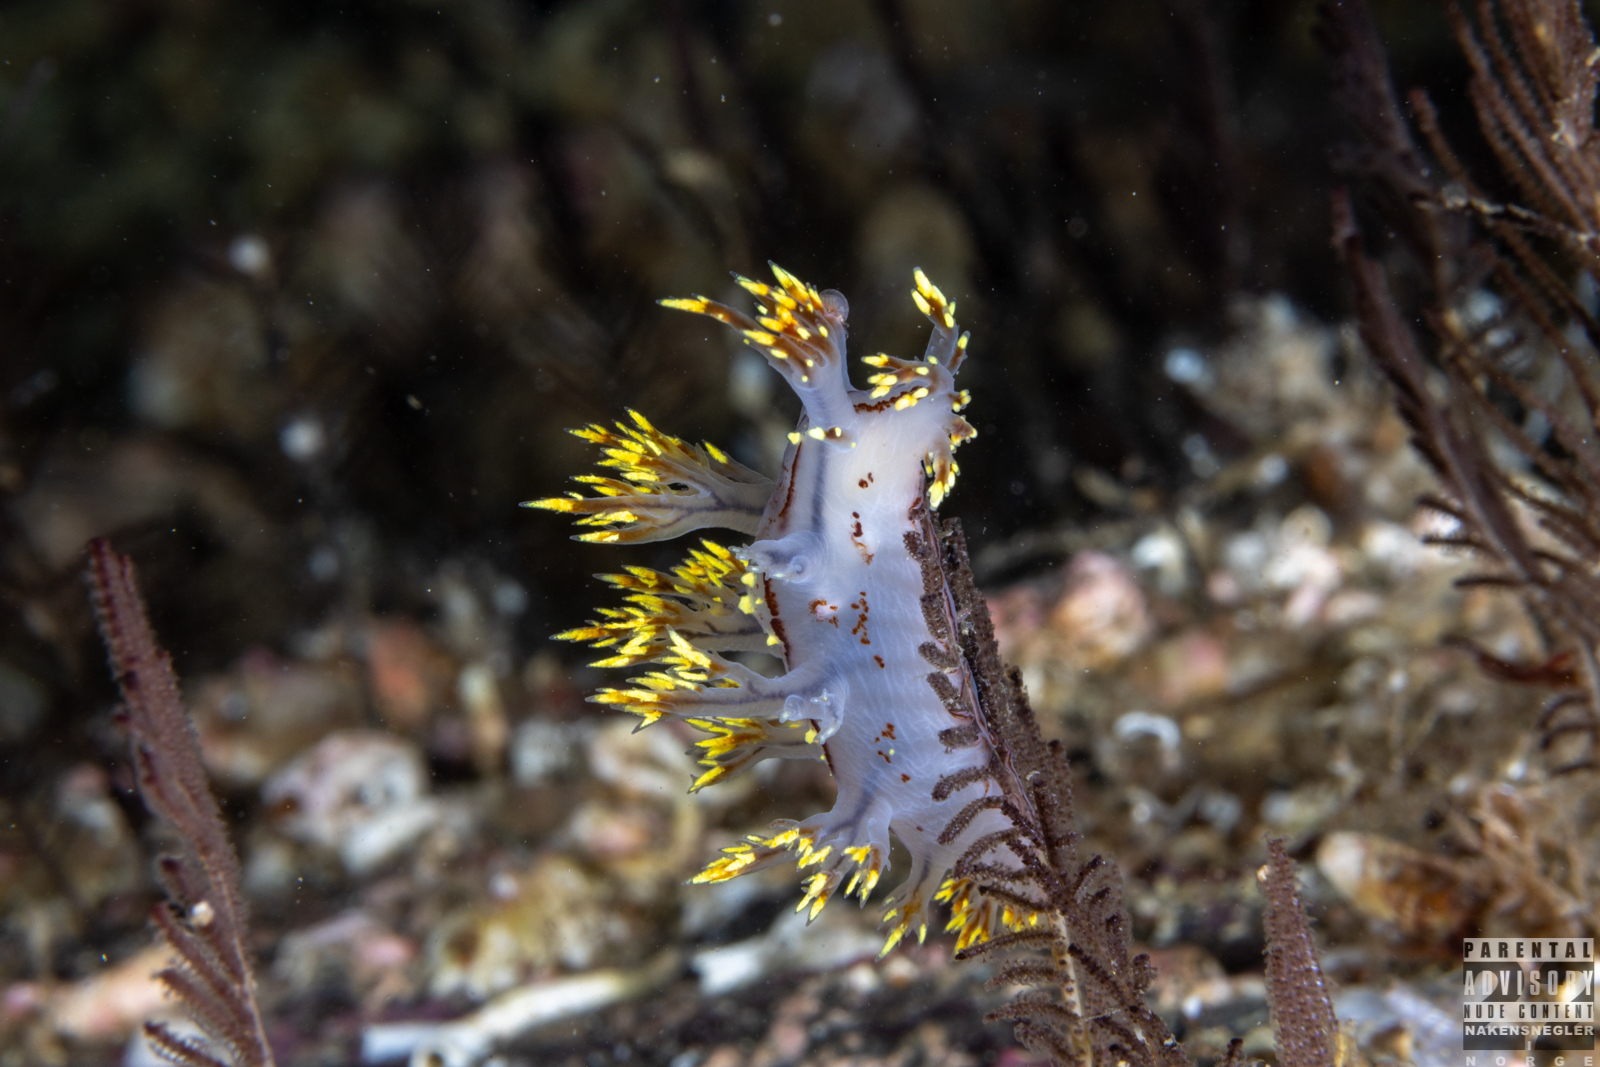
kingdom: Animalia
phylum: Mollusca
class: Gastropoda
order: Nudibranchia
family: Dendronotidae
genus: Dendronotus
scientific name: Dendronotus yrjargul
